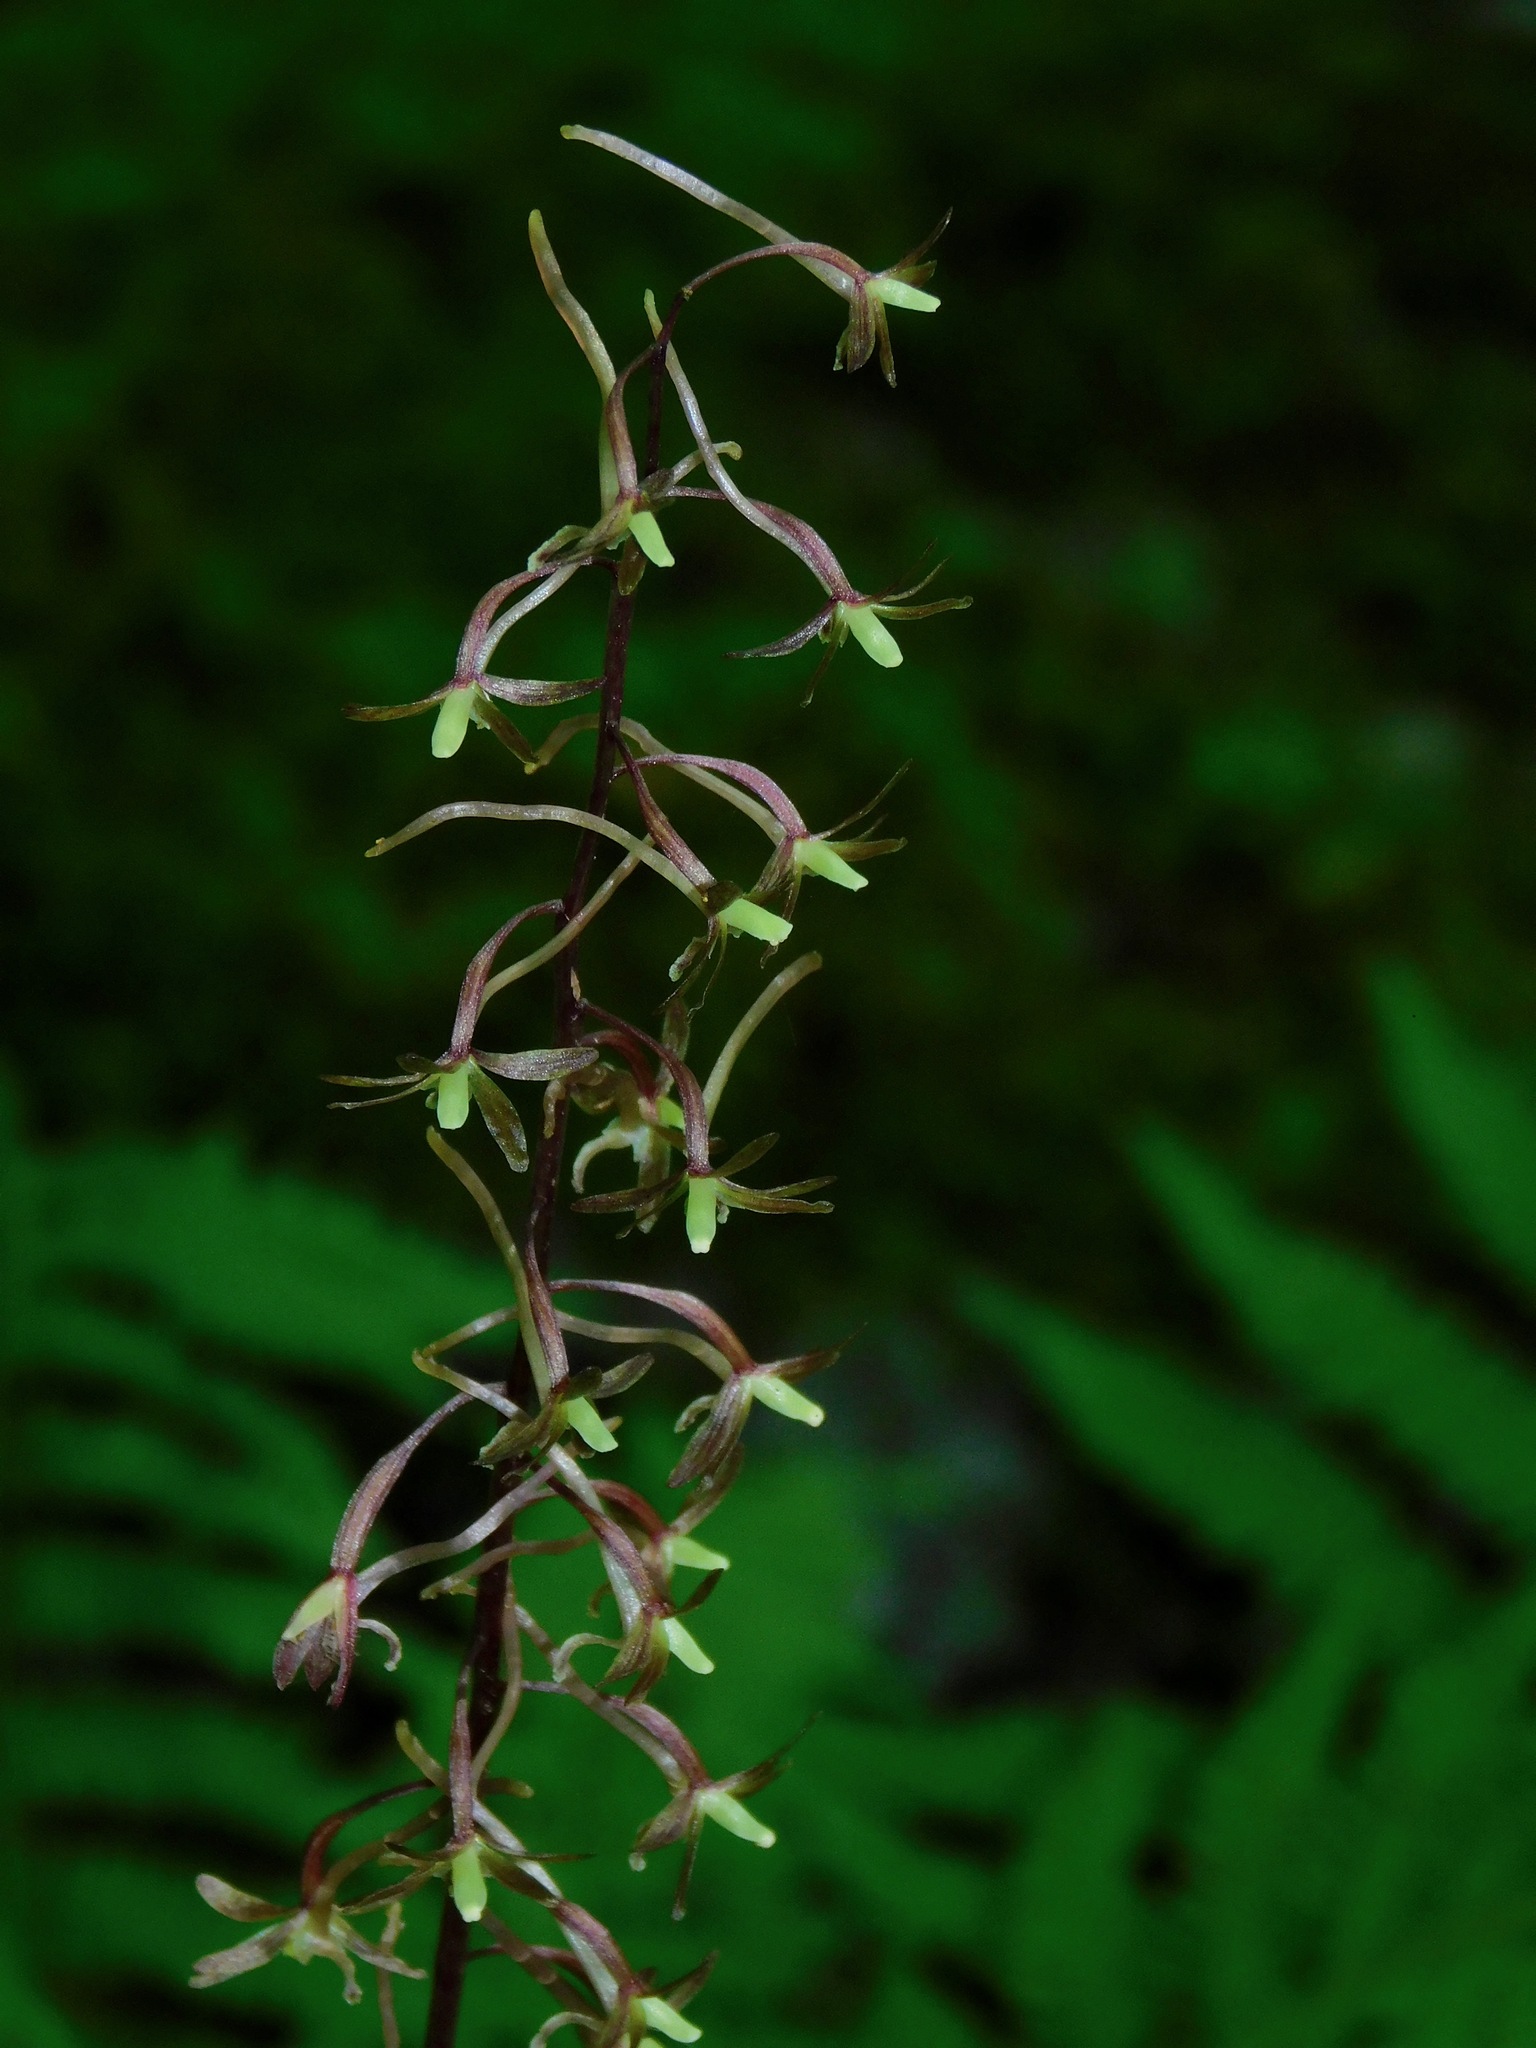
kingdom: Plantae
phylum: Tracheophyta
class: Liliopsida
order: Asparagales
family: Orchidaceae
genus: Tipularia
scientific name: Tipularia discolor
